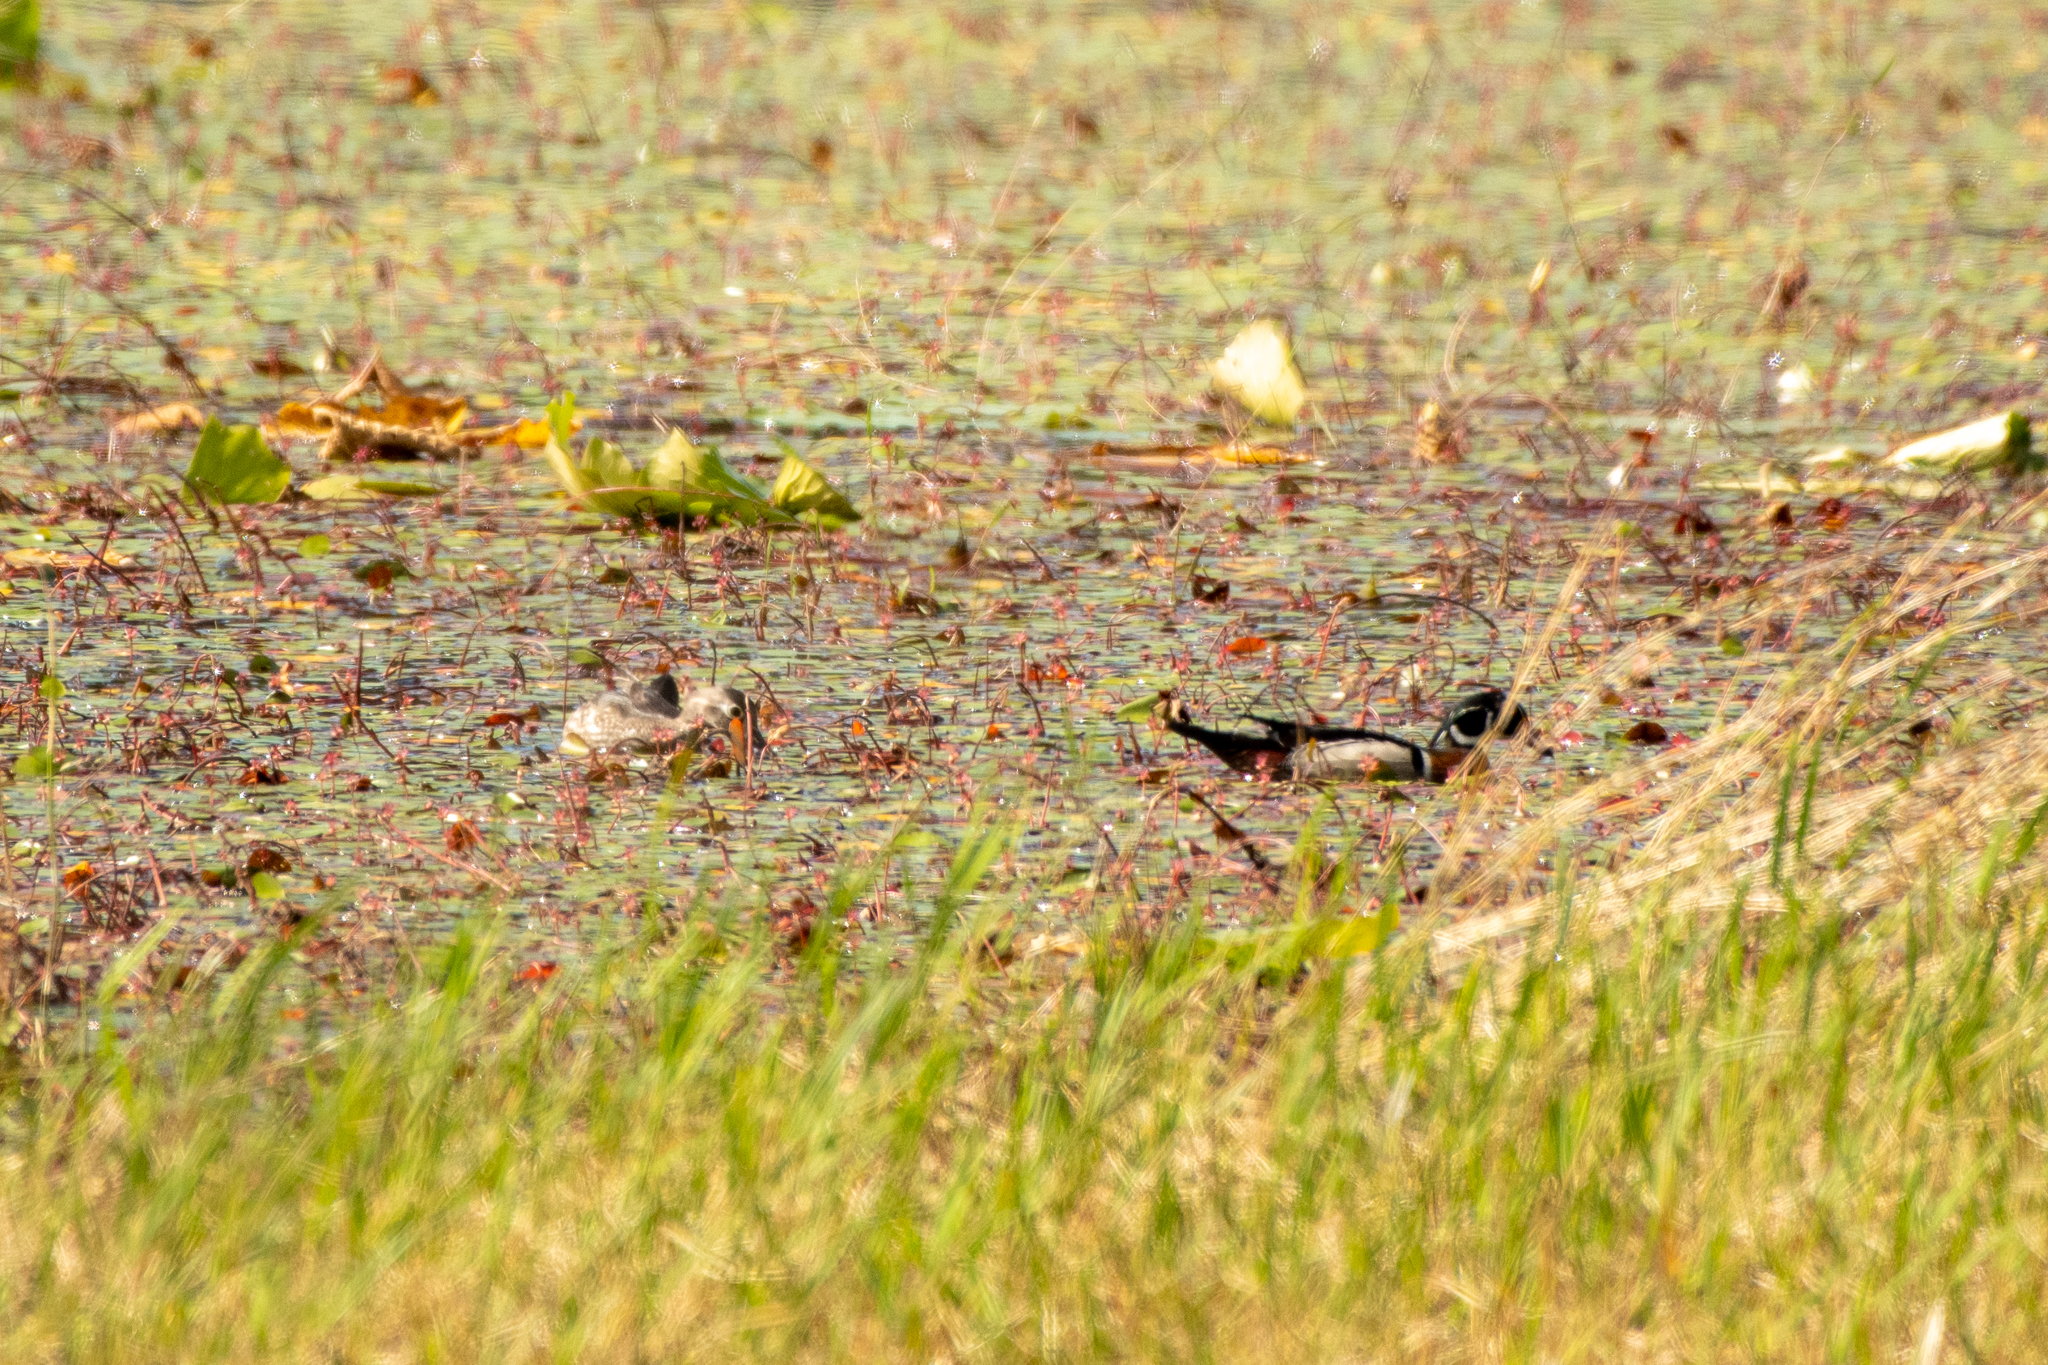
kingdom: Animalia
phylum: Chordata
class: Aves
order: Anseriformes
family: Anatidae
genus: Aix
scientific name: Aix sponsa
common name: Wood duck
